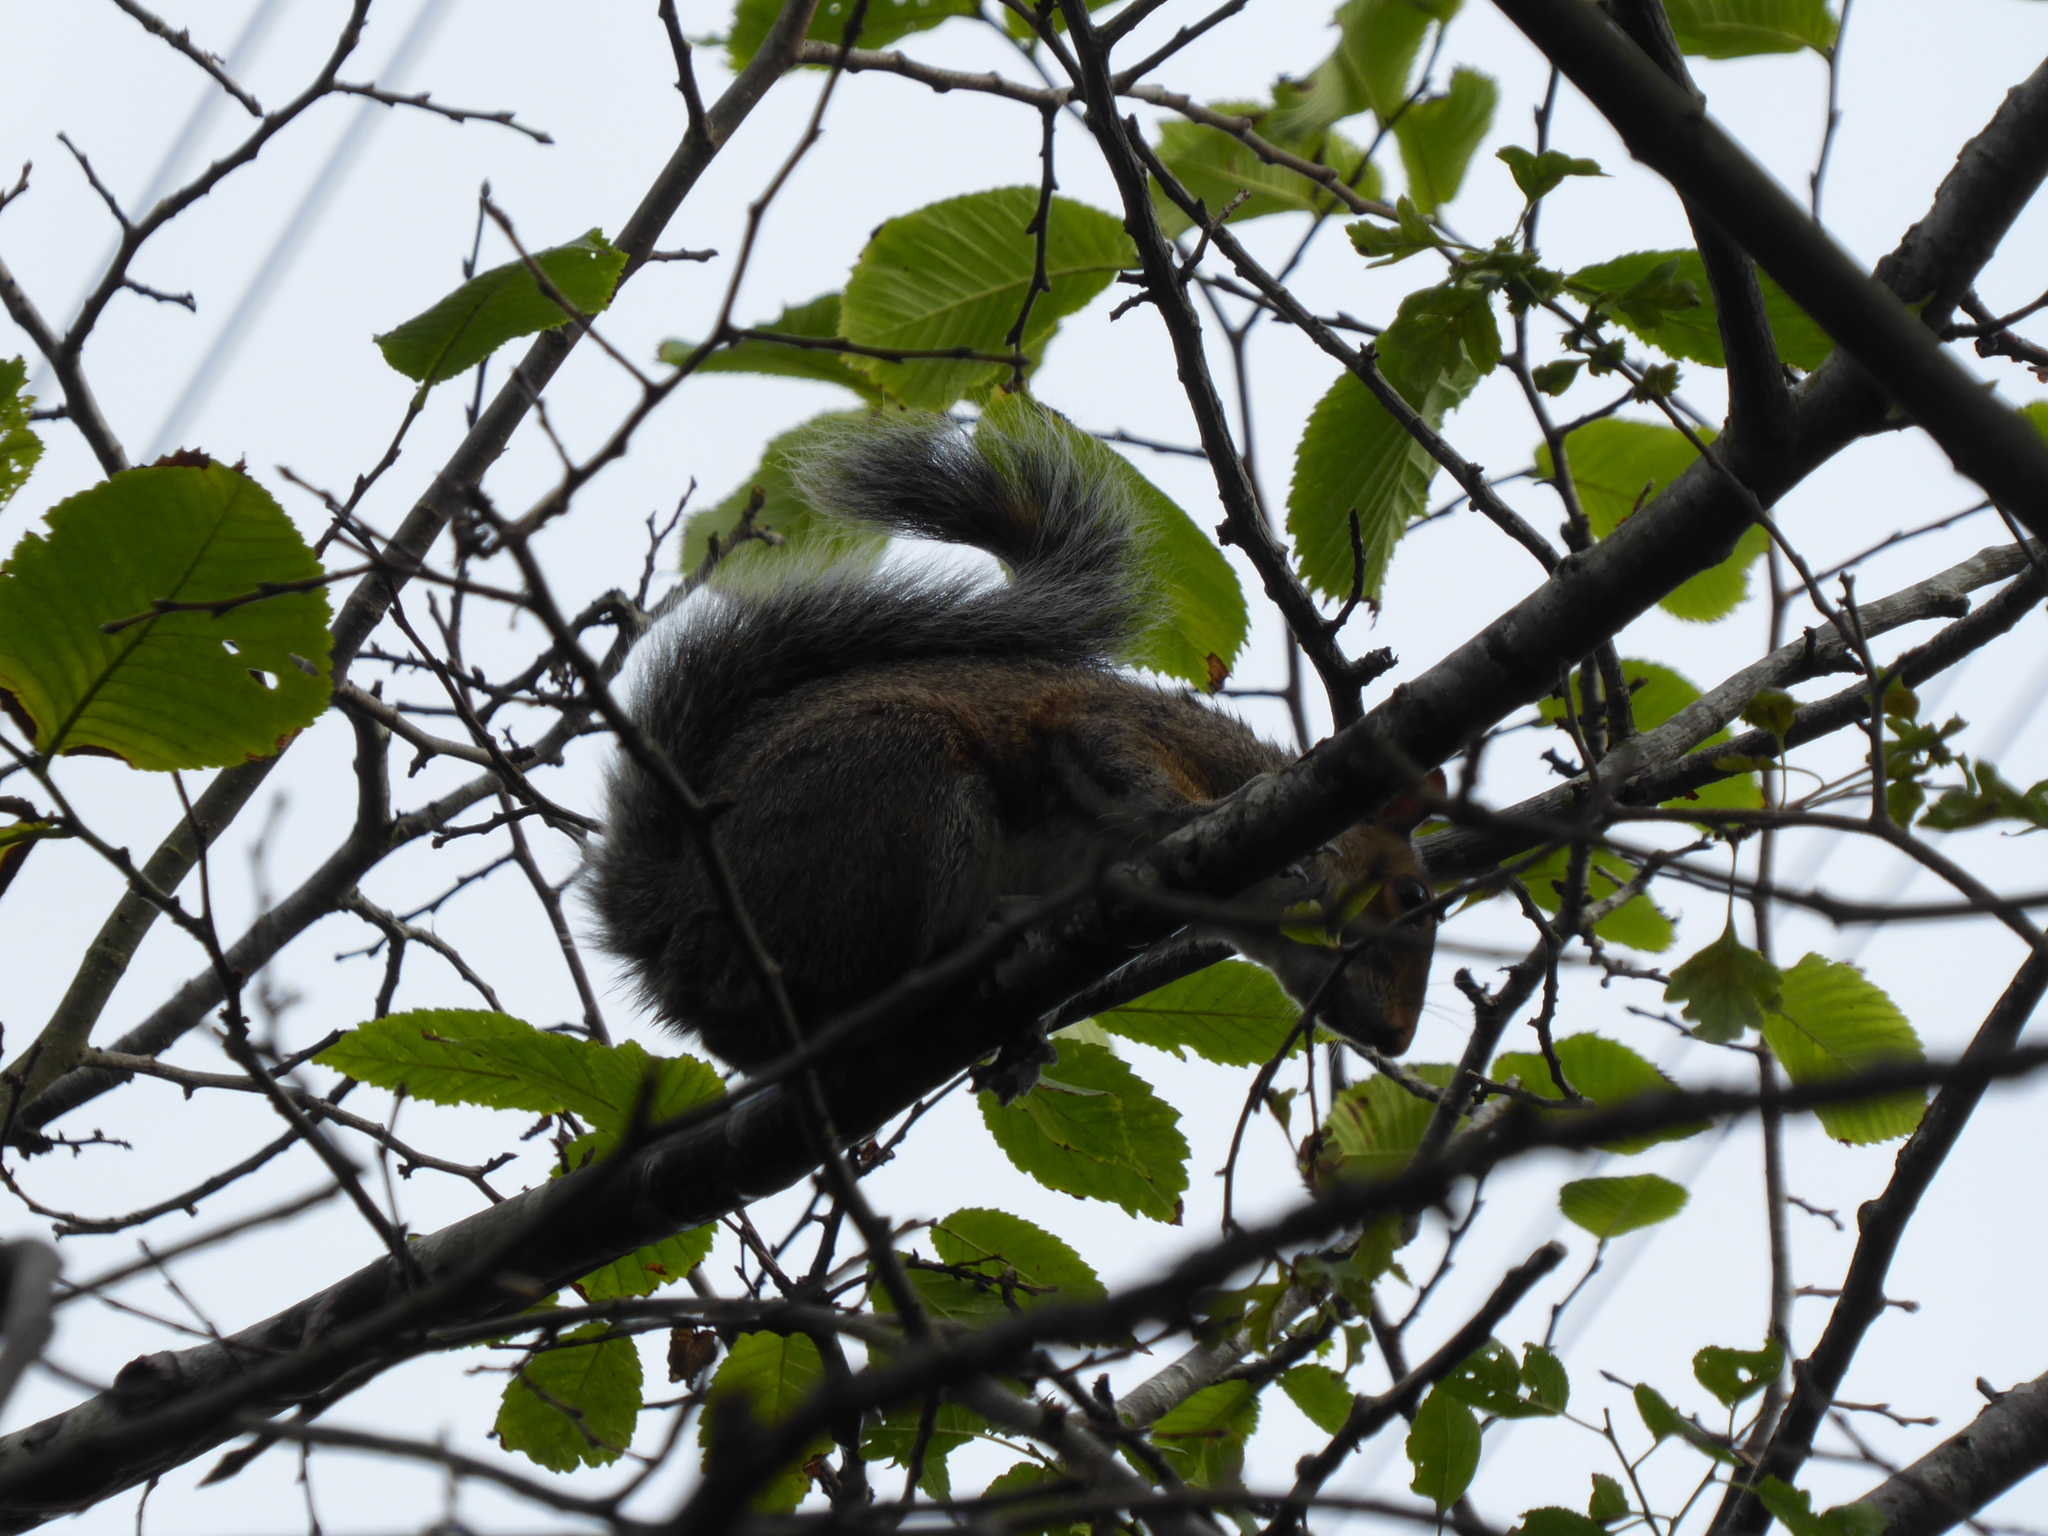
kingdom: Animalia
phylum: Chordata
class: Mammalia
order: Rodentia
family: Sciuridae
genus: Sciurus
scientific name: Sciurus carolinensis
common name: Eastern gray squirrel
